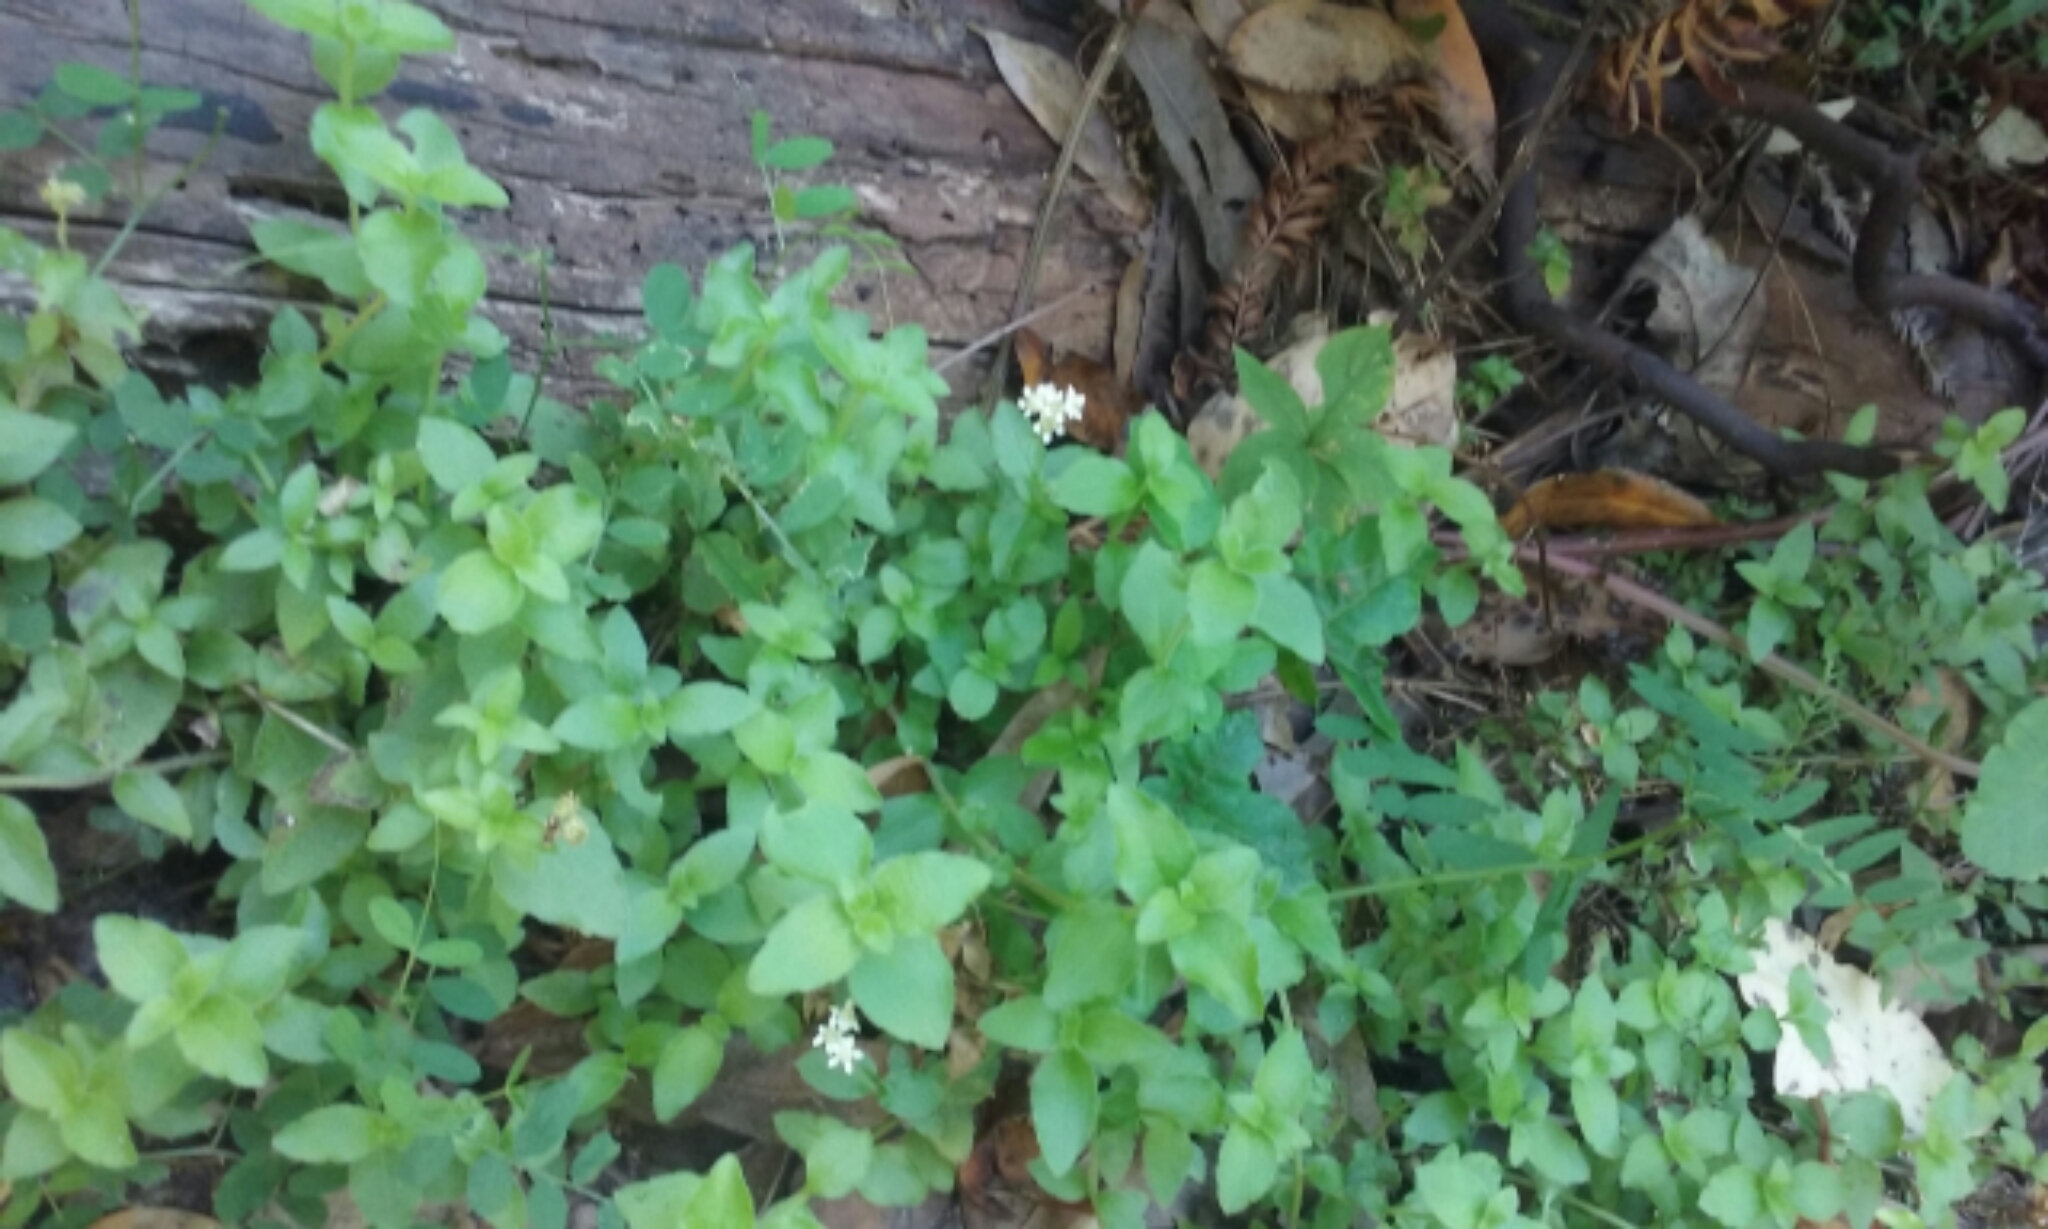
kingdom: Plantae
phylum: Tracheophyta
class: Magnoliopsida
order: Cornales
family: Hydrangeaceae
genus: Whipplea
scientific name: Whipplea modesta
